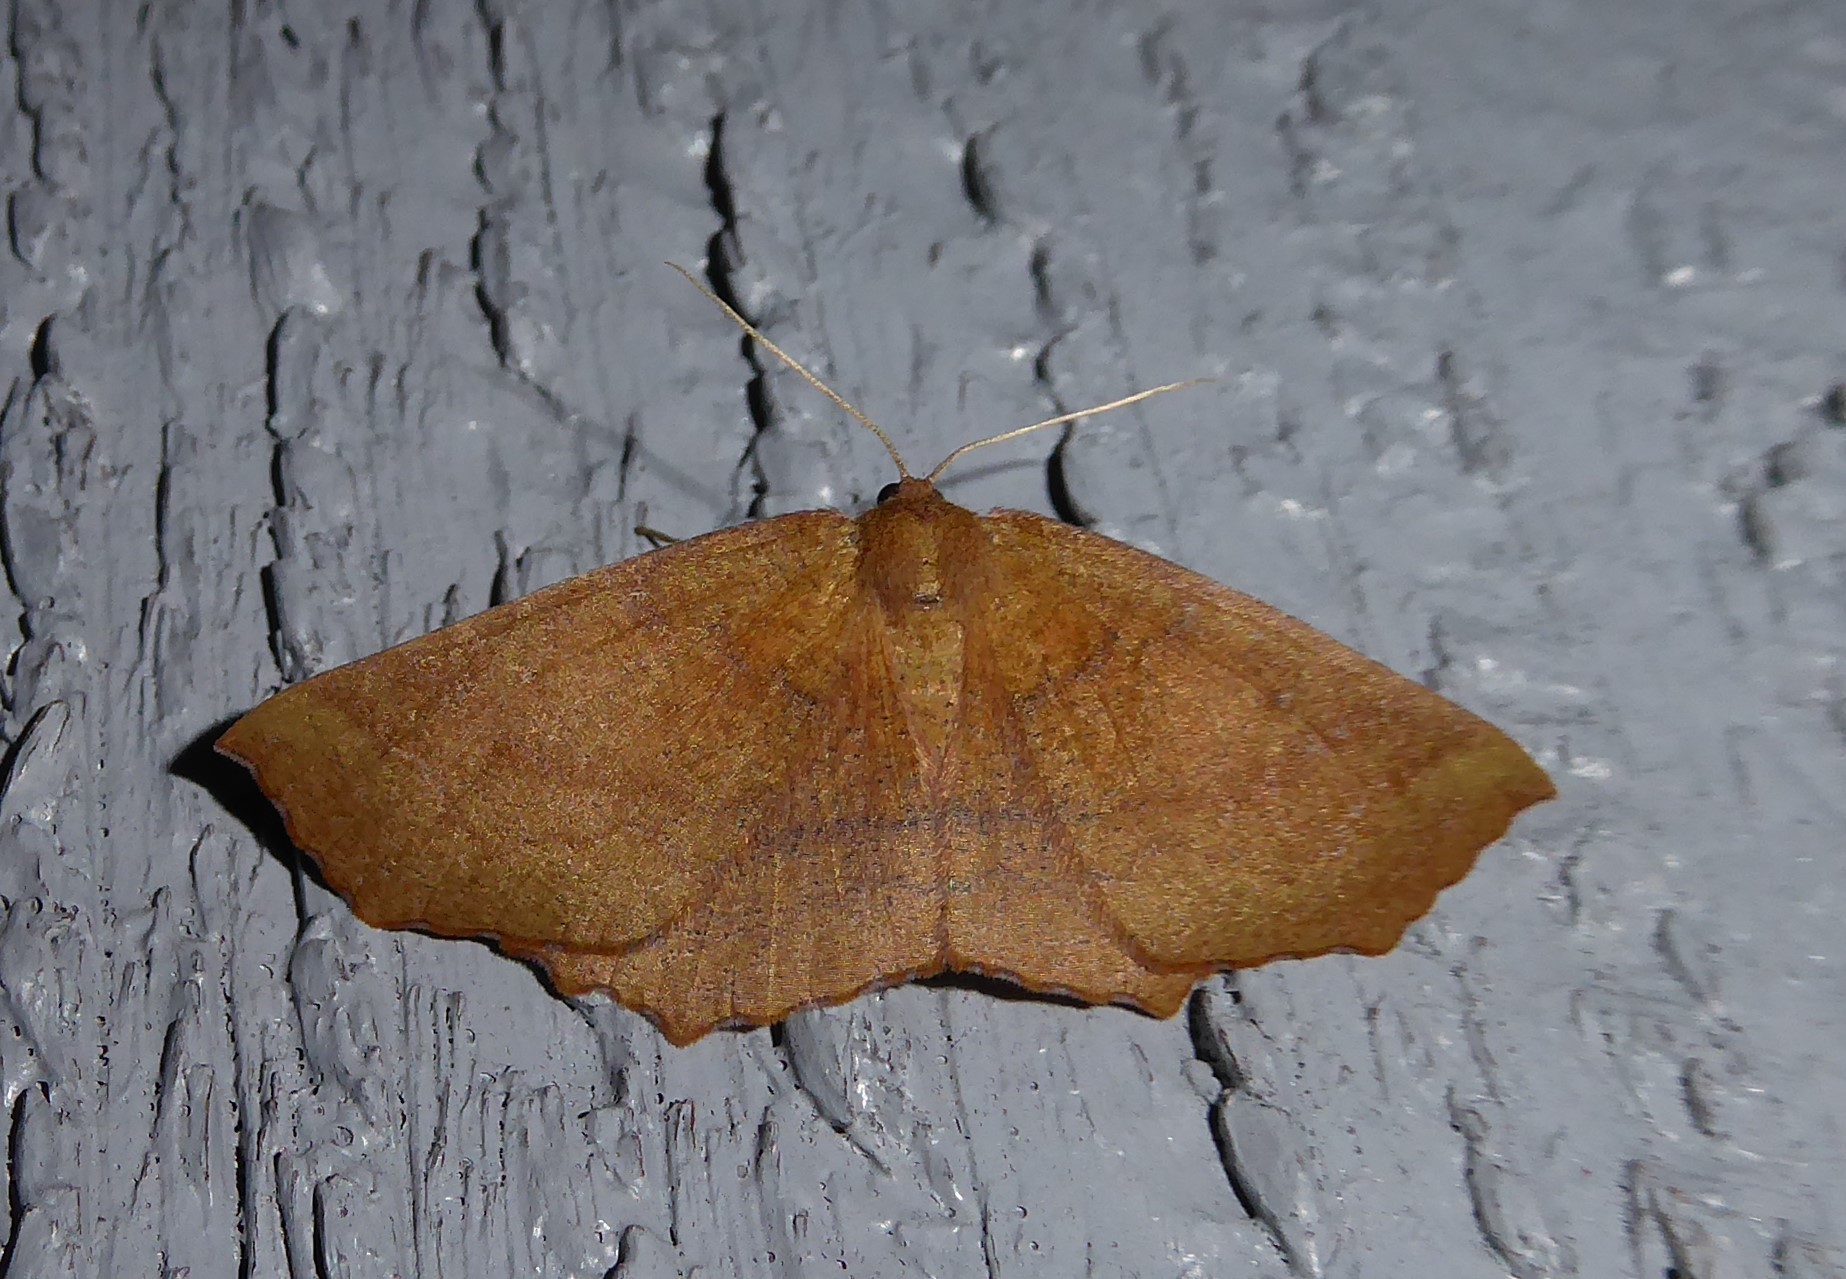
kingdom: Animalia
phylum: Arthropoda
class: Insecta
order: Lepidoptera
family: Geometridae
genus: Xyridacma
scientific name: Xyridacma ustaria
